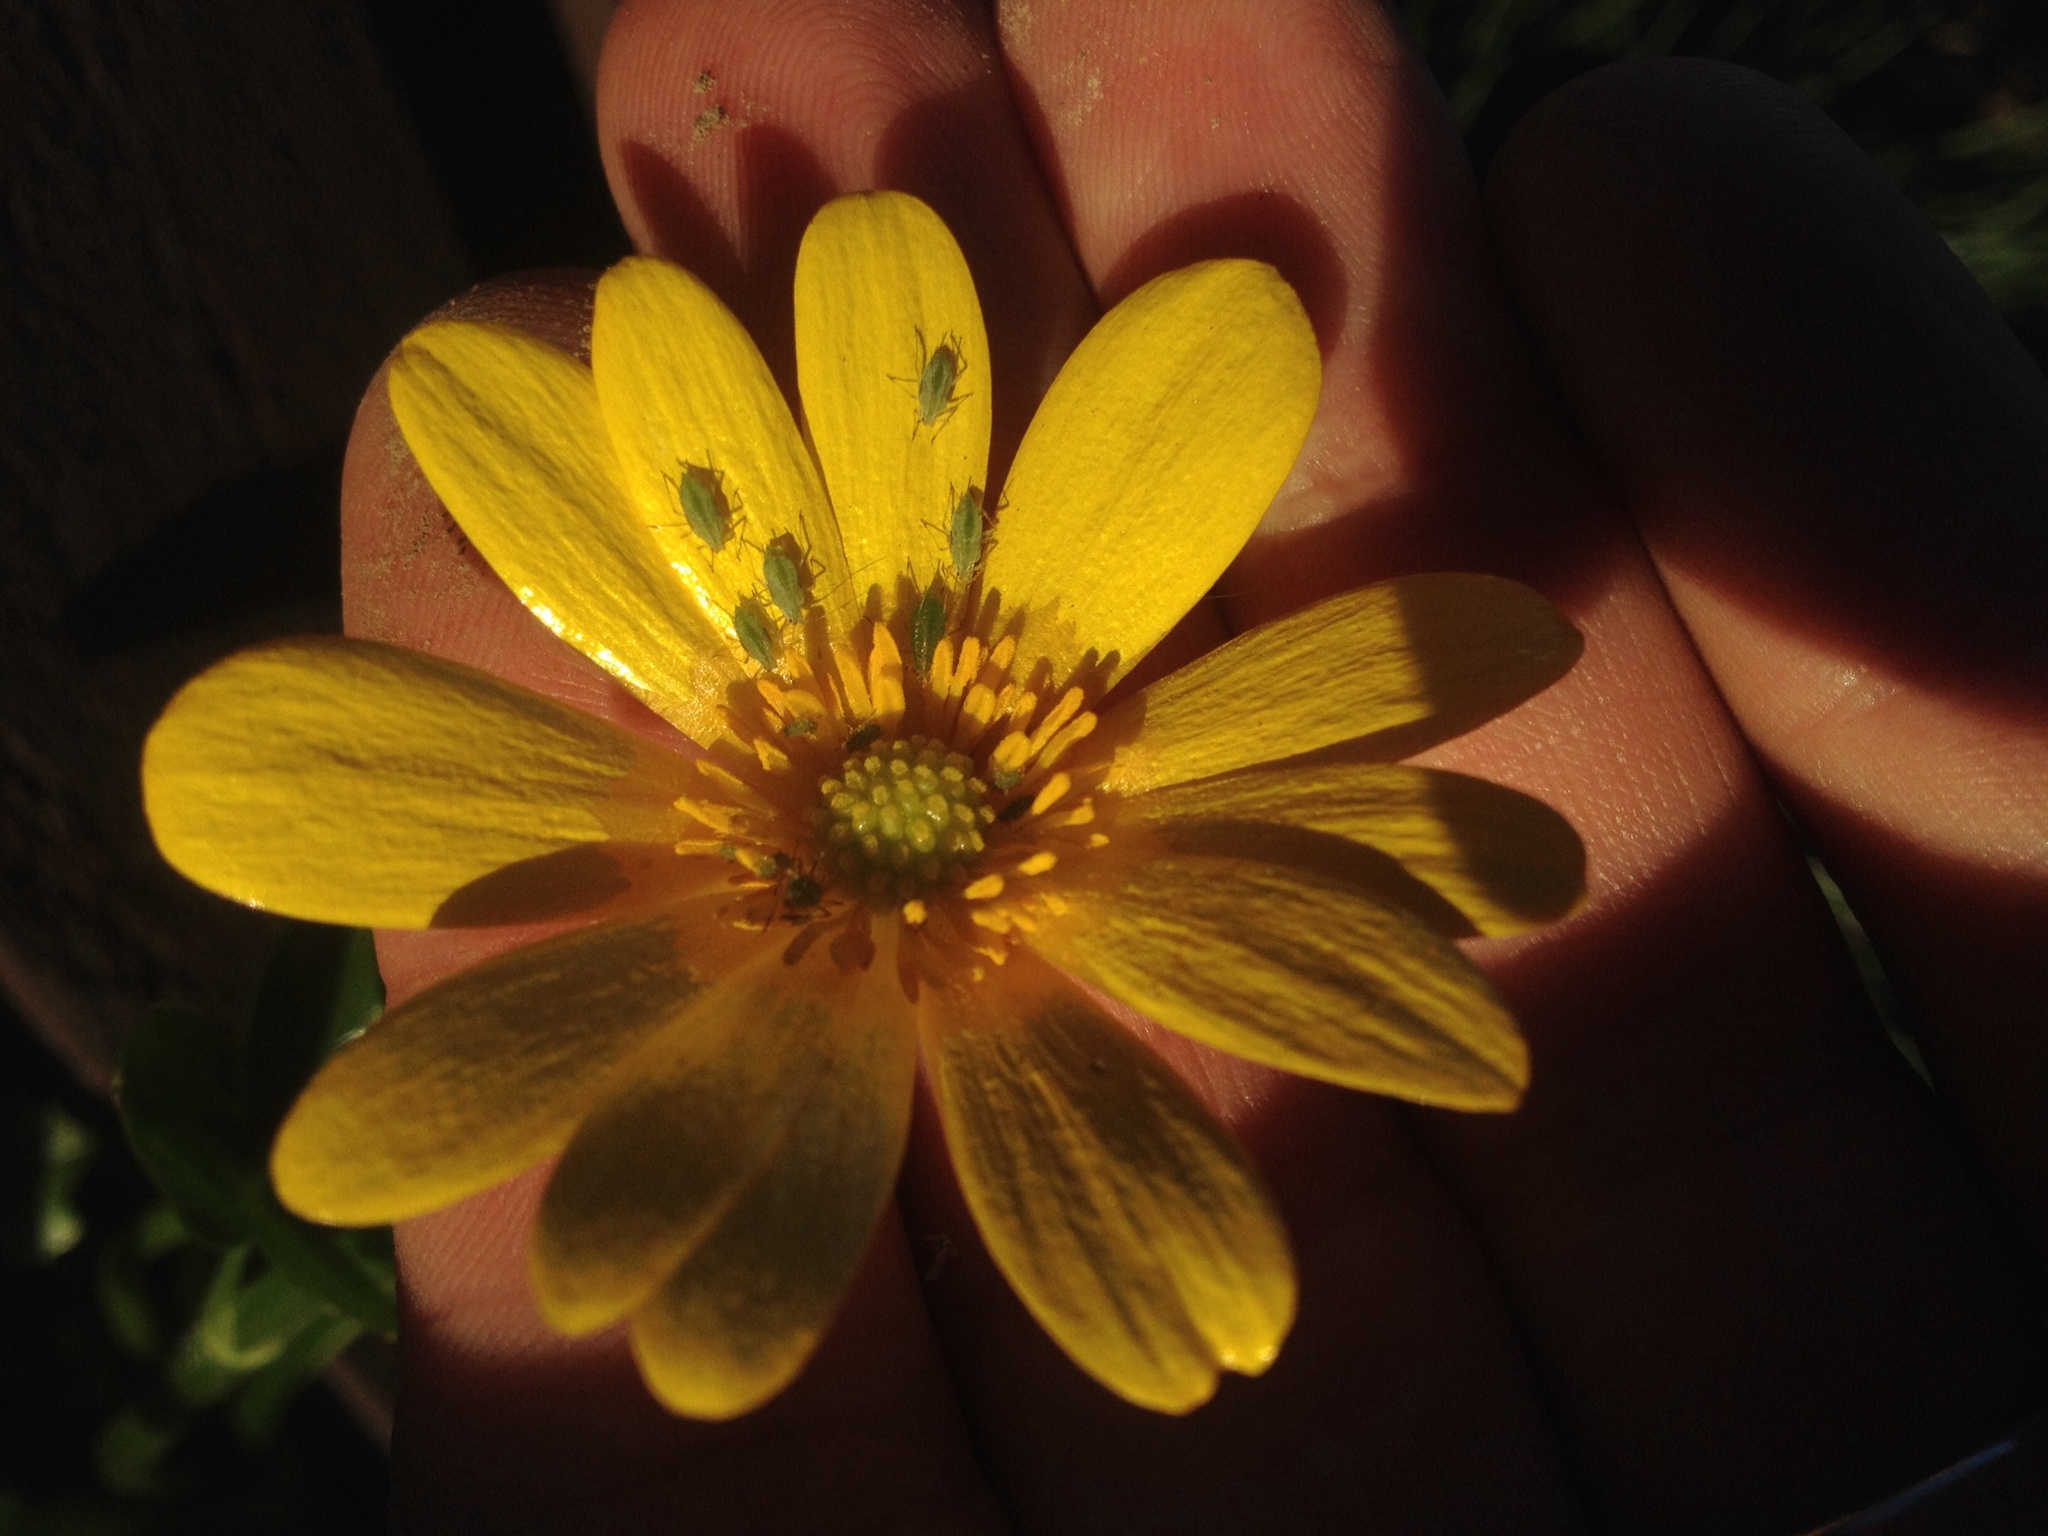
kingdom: Animalia
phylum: Arthropoda
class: Insecta
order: Hemiptera
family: Aphididae
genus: Macrosiphum
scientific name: Macrosiphum euphorbiae
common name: Potato aphid
